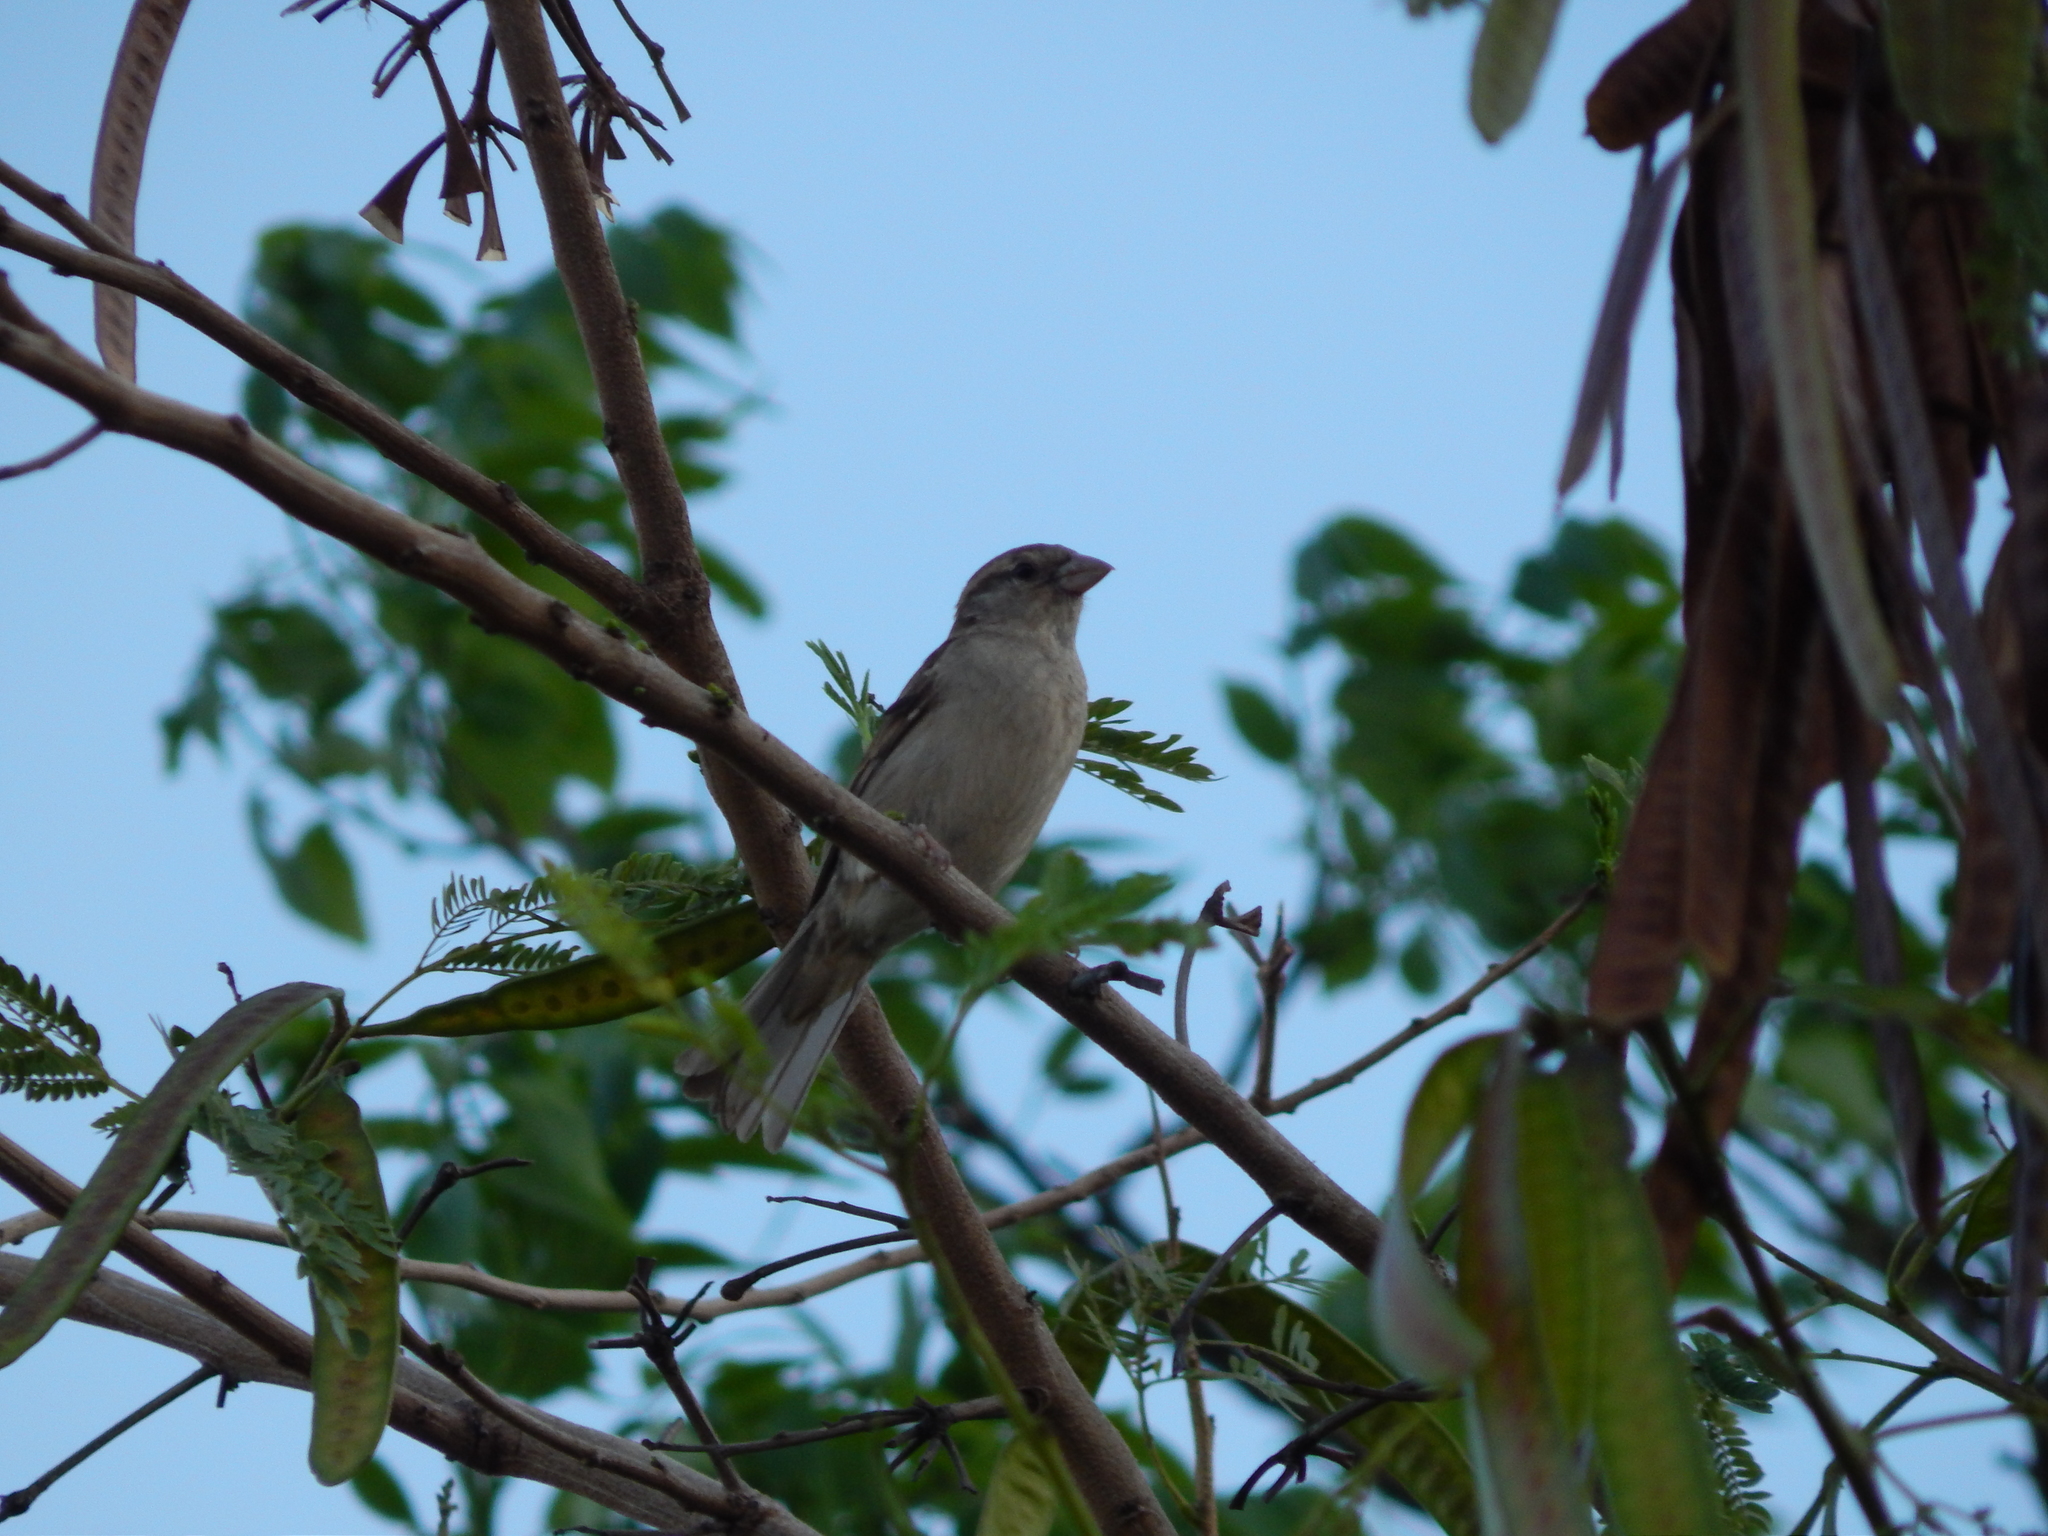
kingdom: Animalia
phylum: Chordata
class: Aves
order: Passeriformes
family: Passeridae
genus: Passer
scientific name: Passer domesticus
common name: House sparrow
